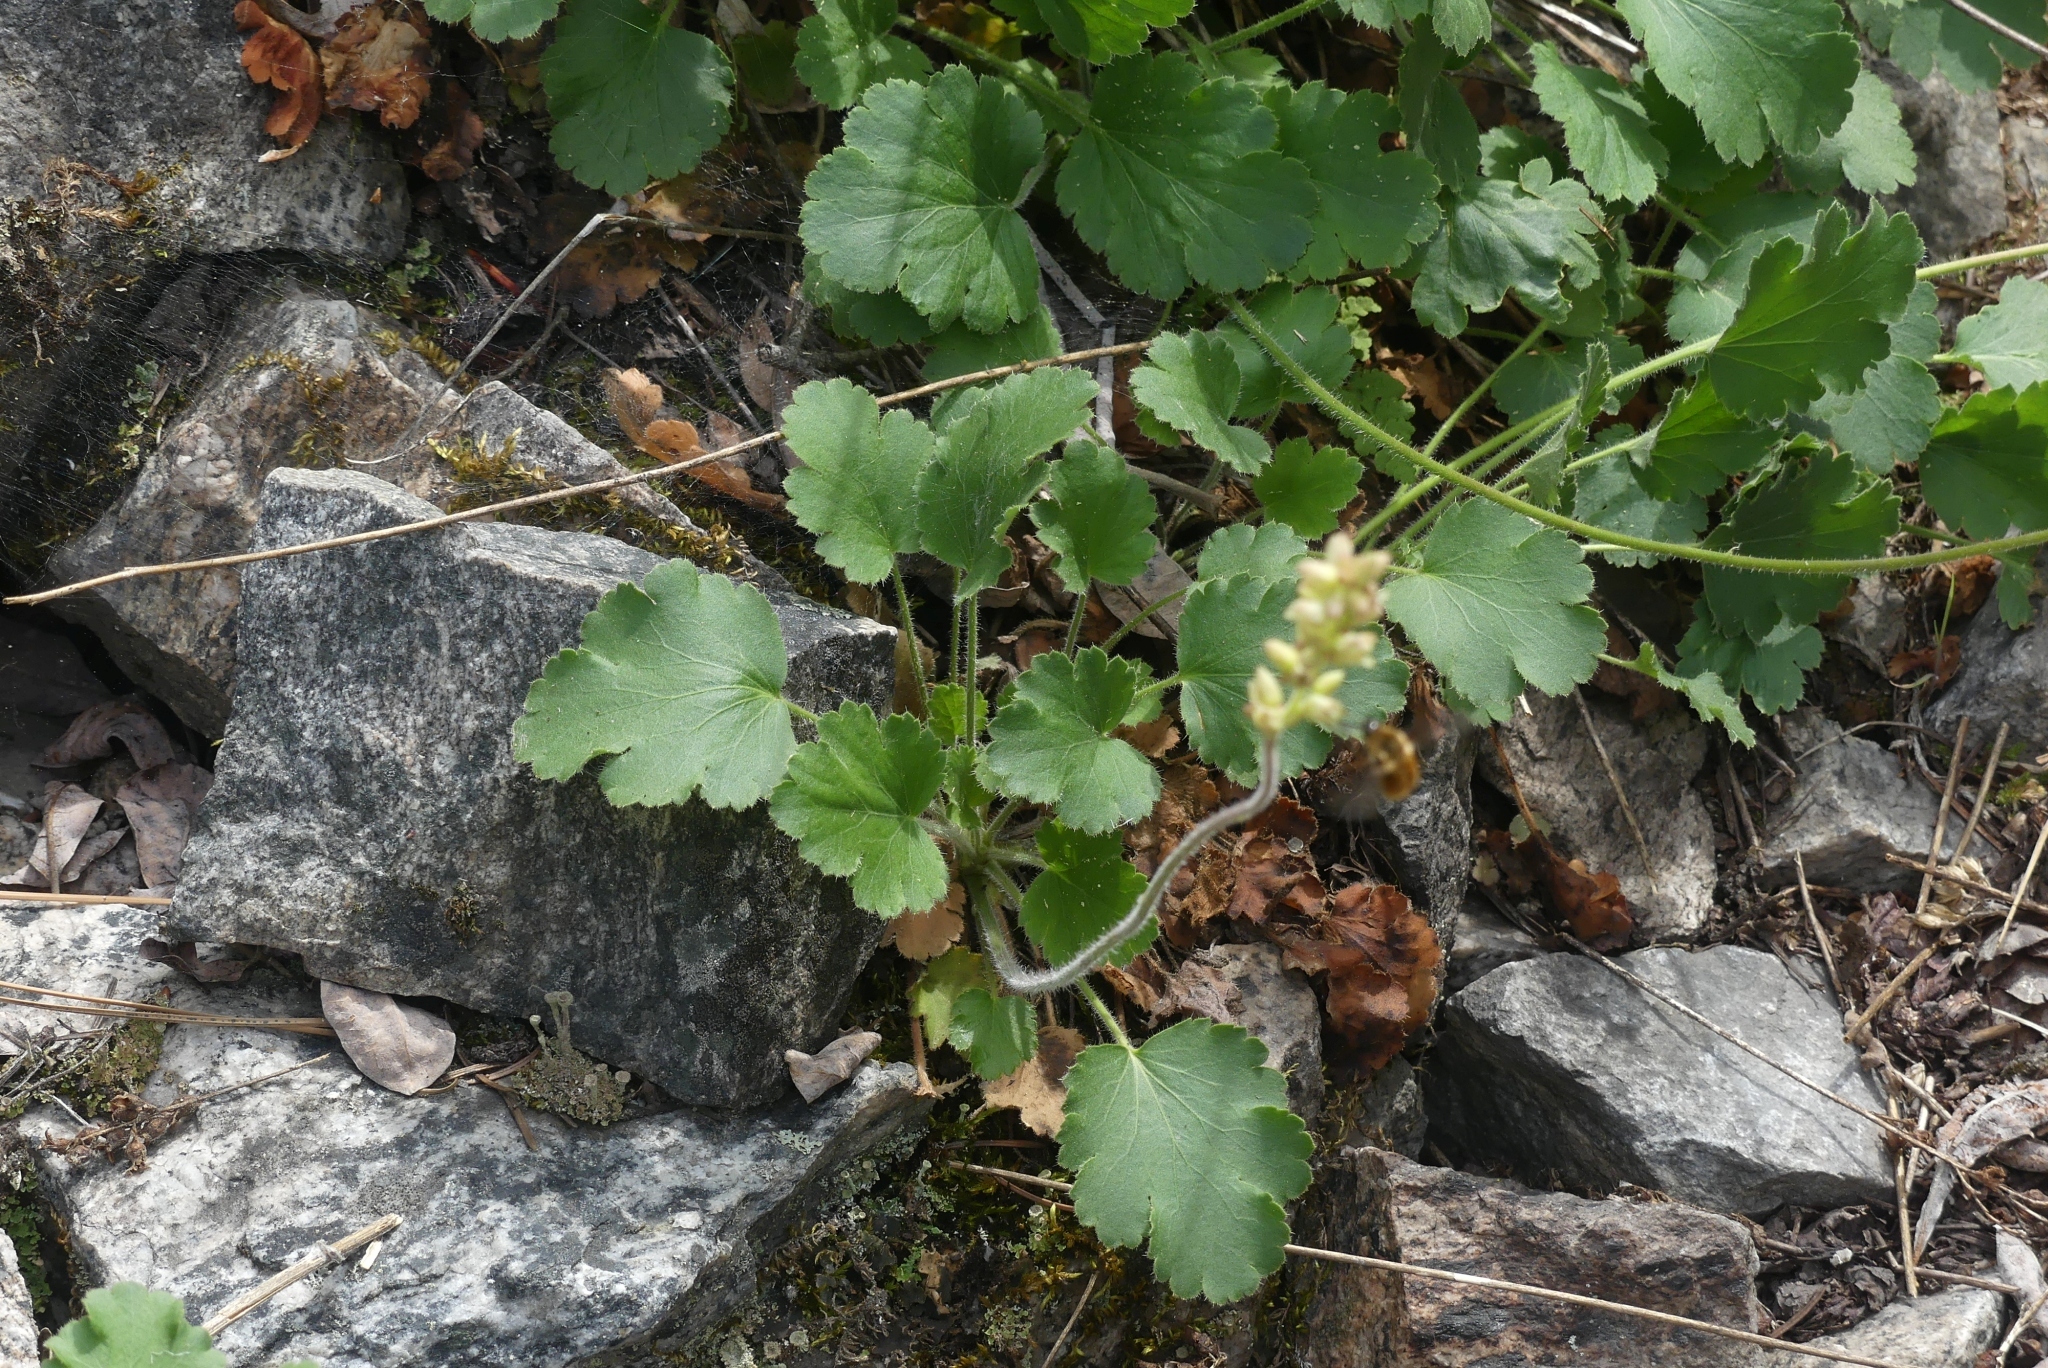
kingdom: Plantae
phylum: Tracheophyta
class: Magnoliopsida
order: Saxifragales
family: Saxifragaceae
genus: Heuchera
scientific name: Heuchera cylindrica
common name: Mat alumroot
